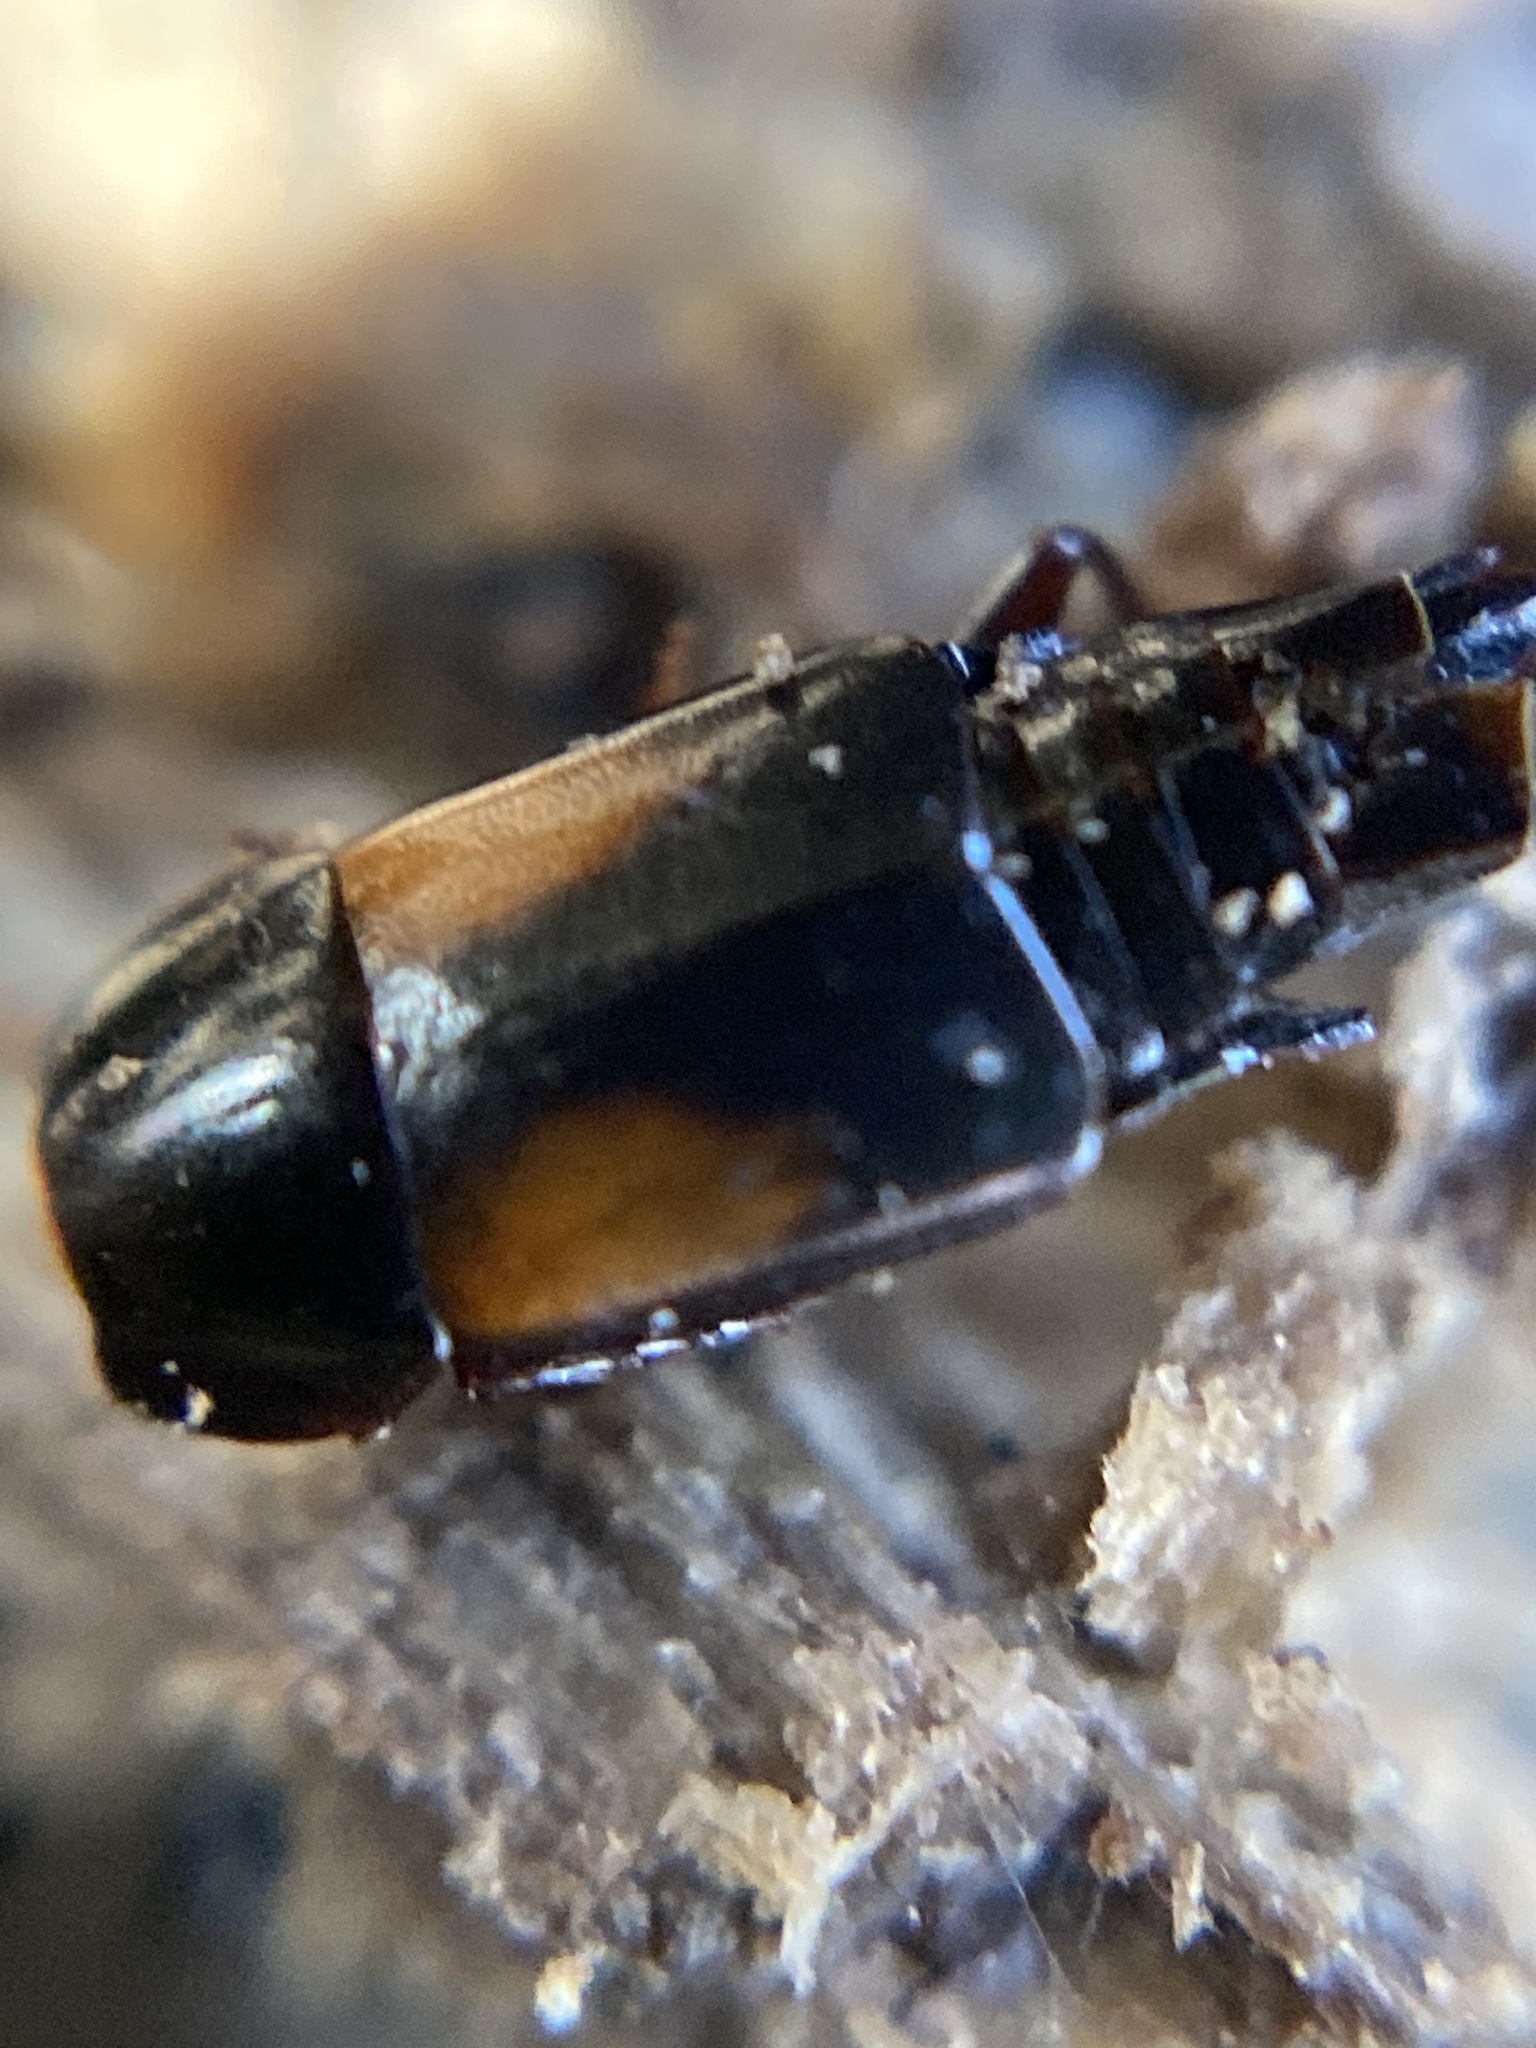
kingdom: Animalia
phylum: Arthropoda
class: Insecta
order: Coleoptera
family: Staphylinidae
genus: Tachinus
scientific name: Tachinus subterraneus
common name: Staph beetle
